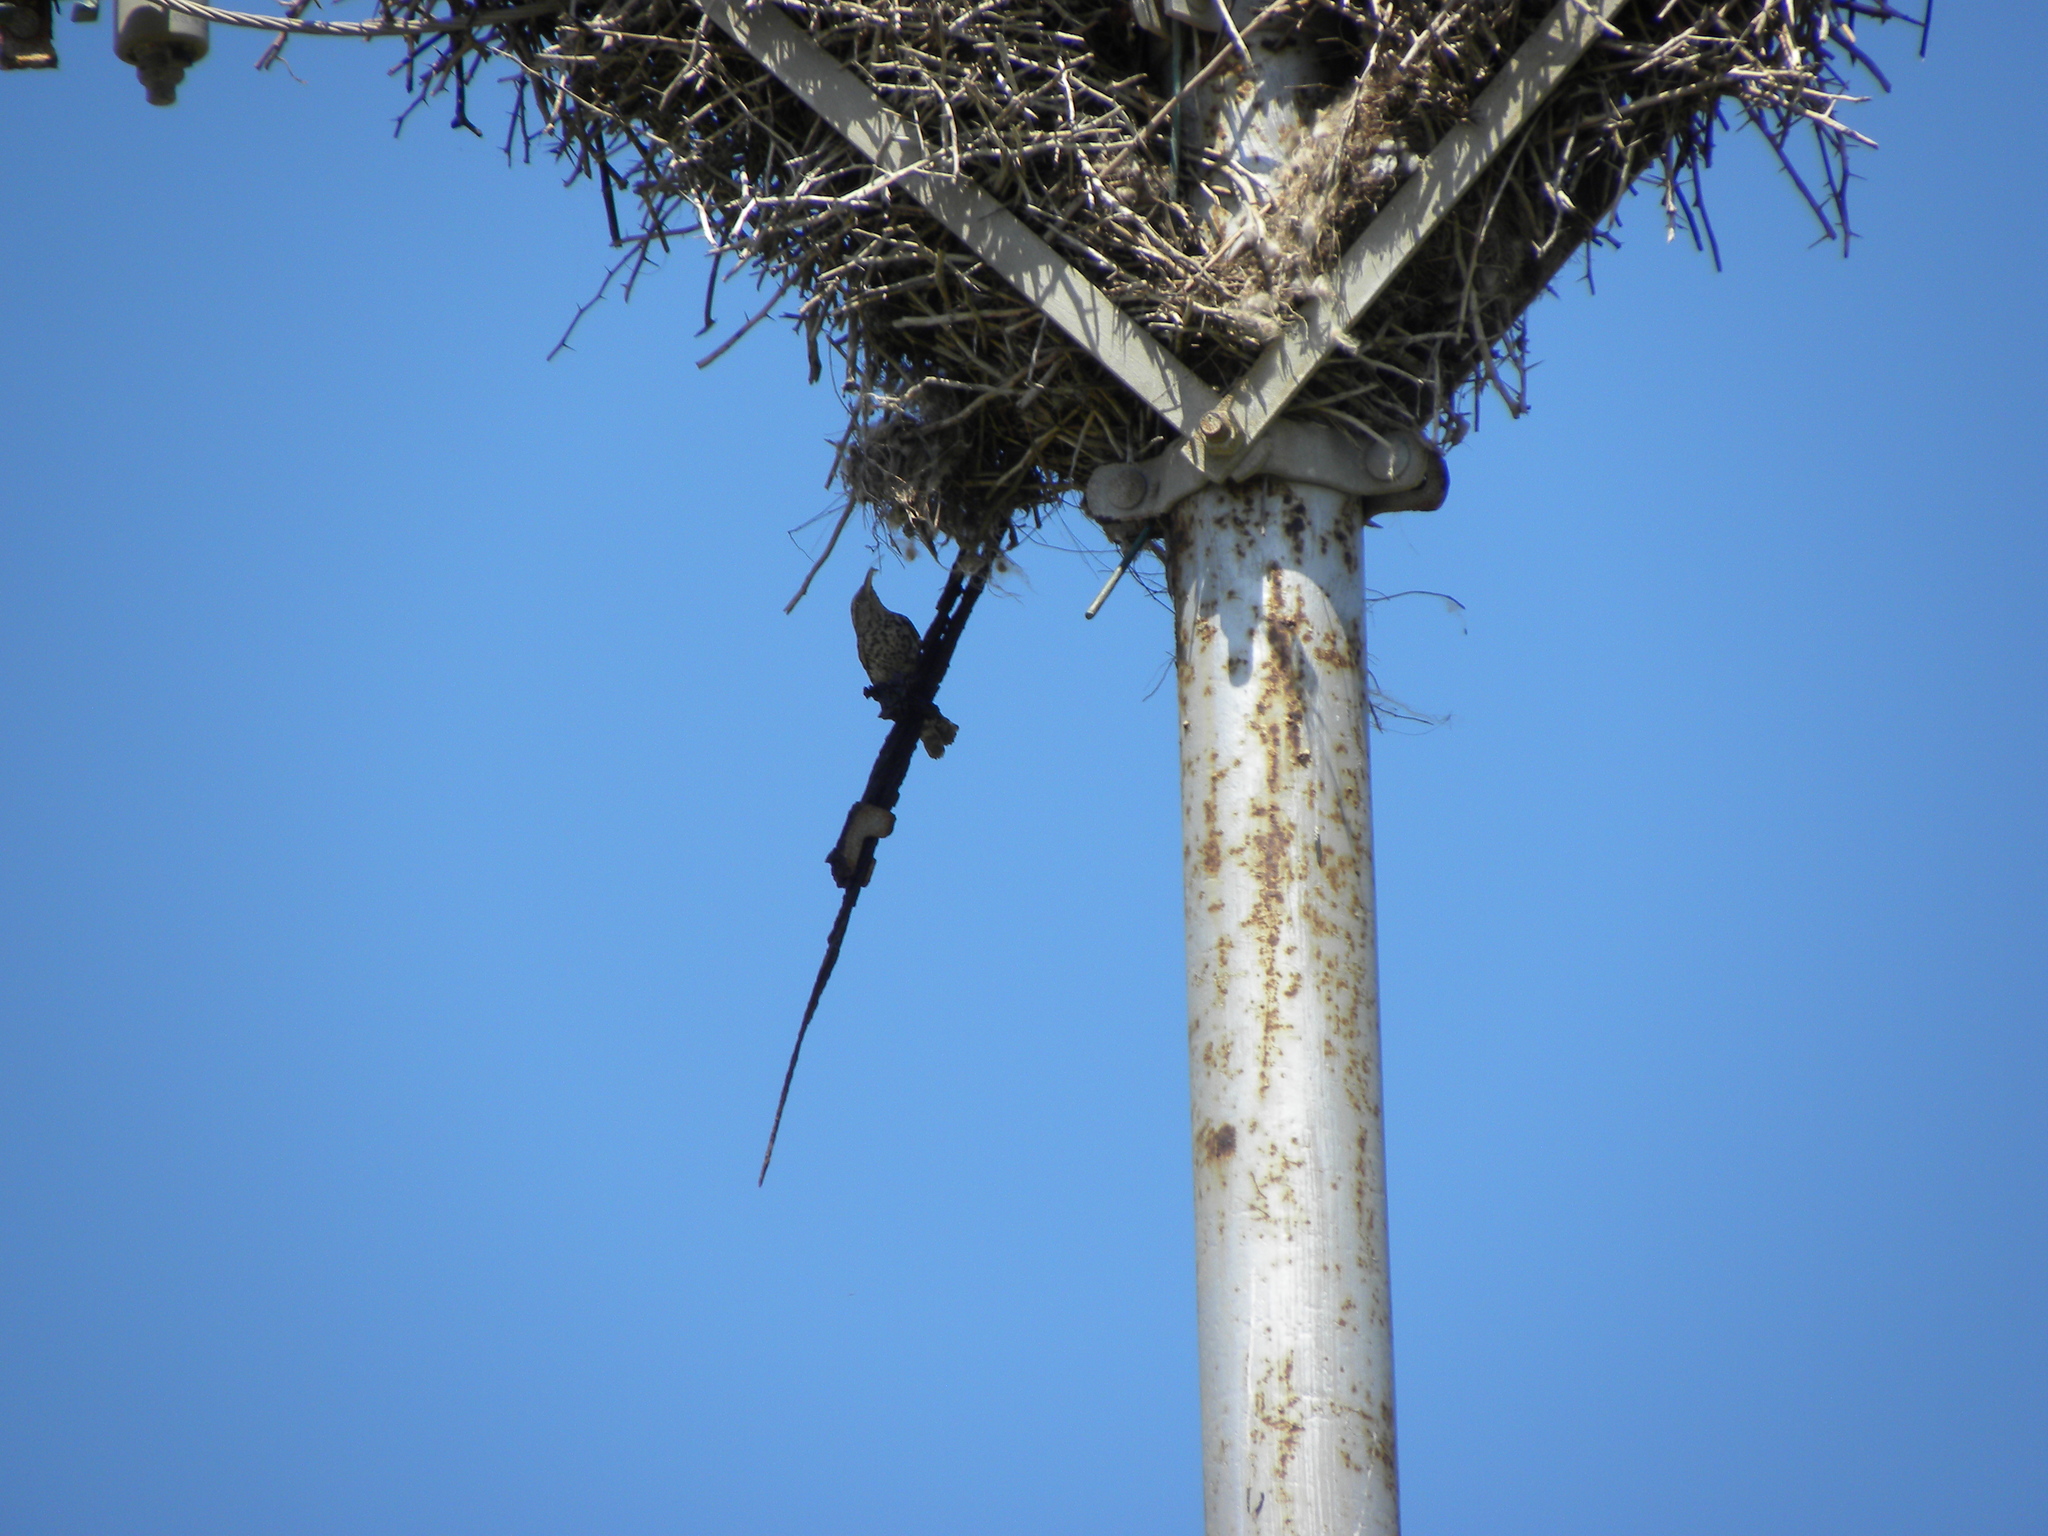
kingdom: Animalia
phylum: Chordata
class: Aves
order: Passeriformes
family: Troglodytidae
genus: Campylorhynchus
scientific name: Campylorhynchus nuchalis
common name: Stripe-backed wren
